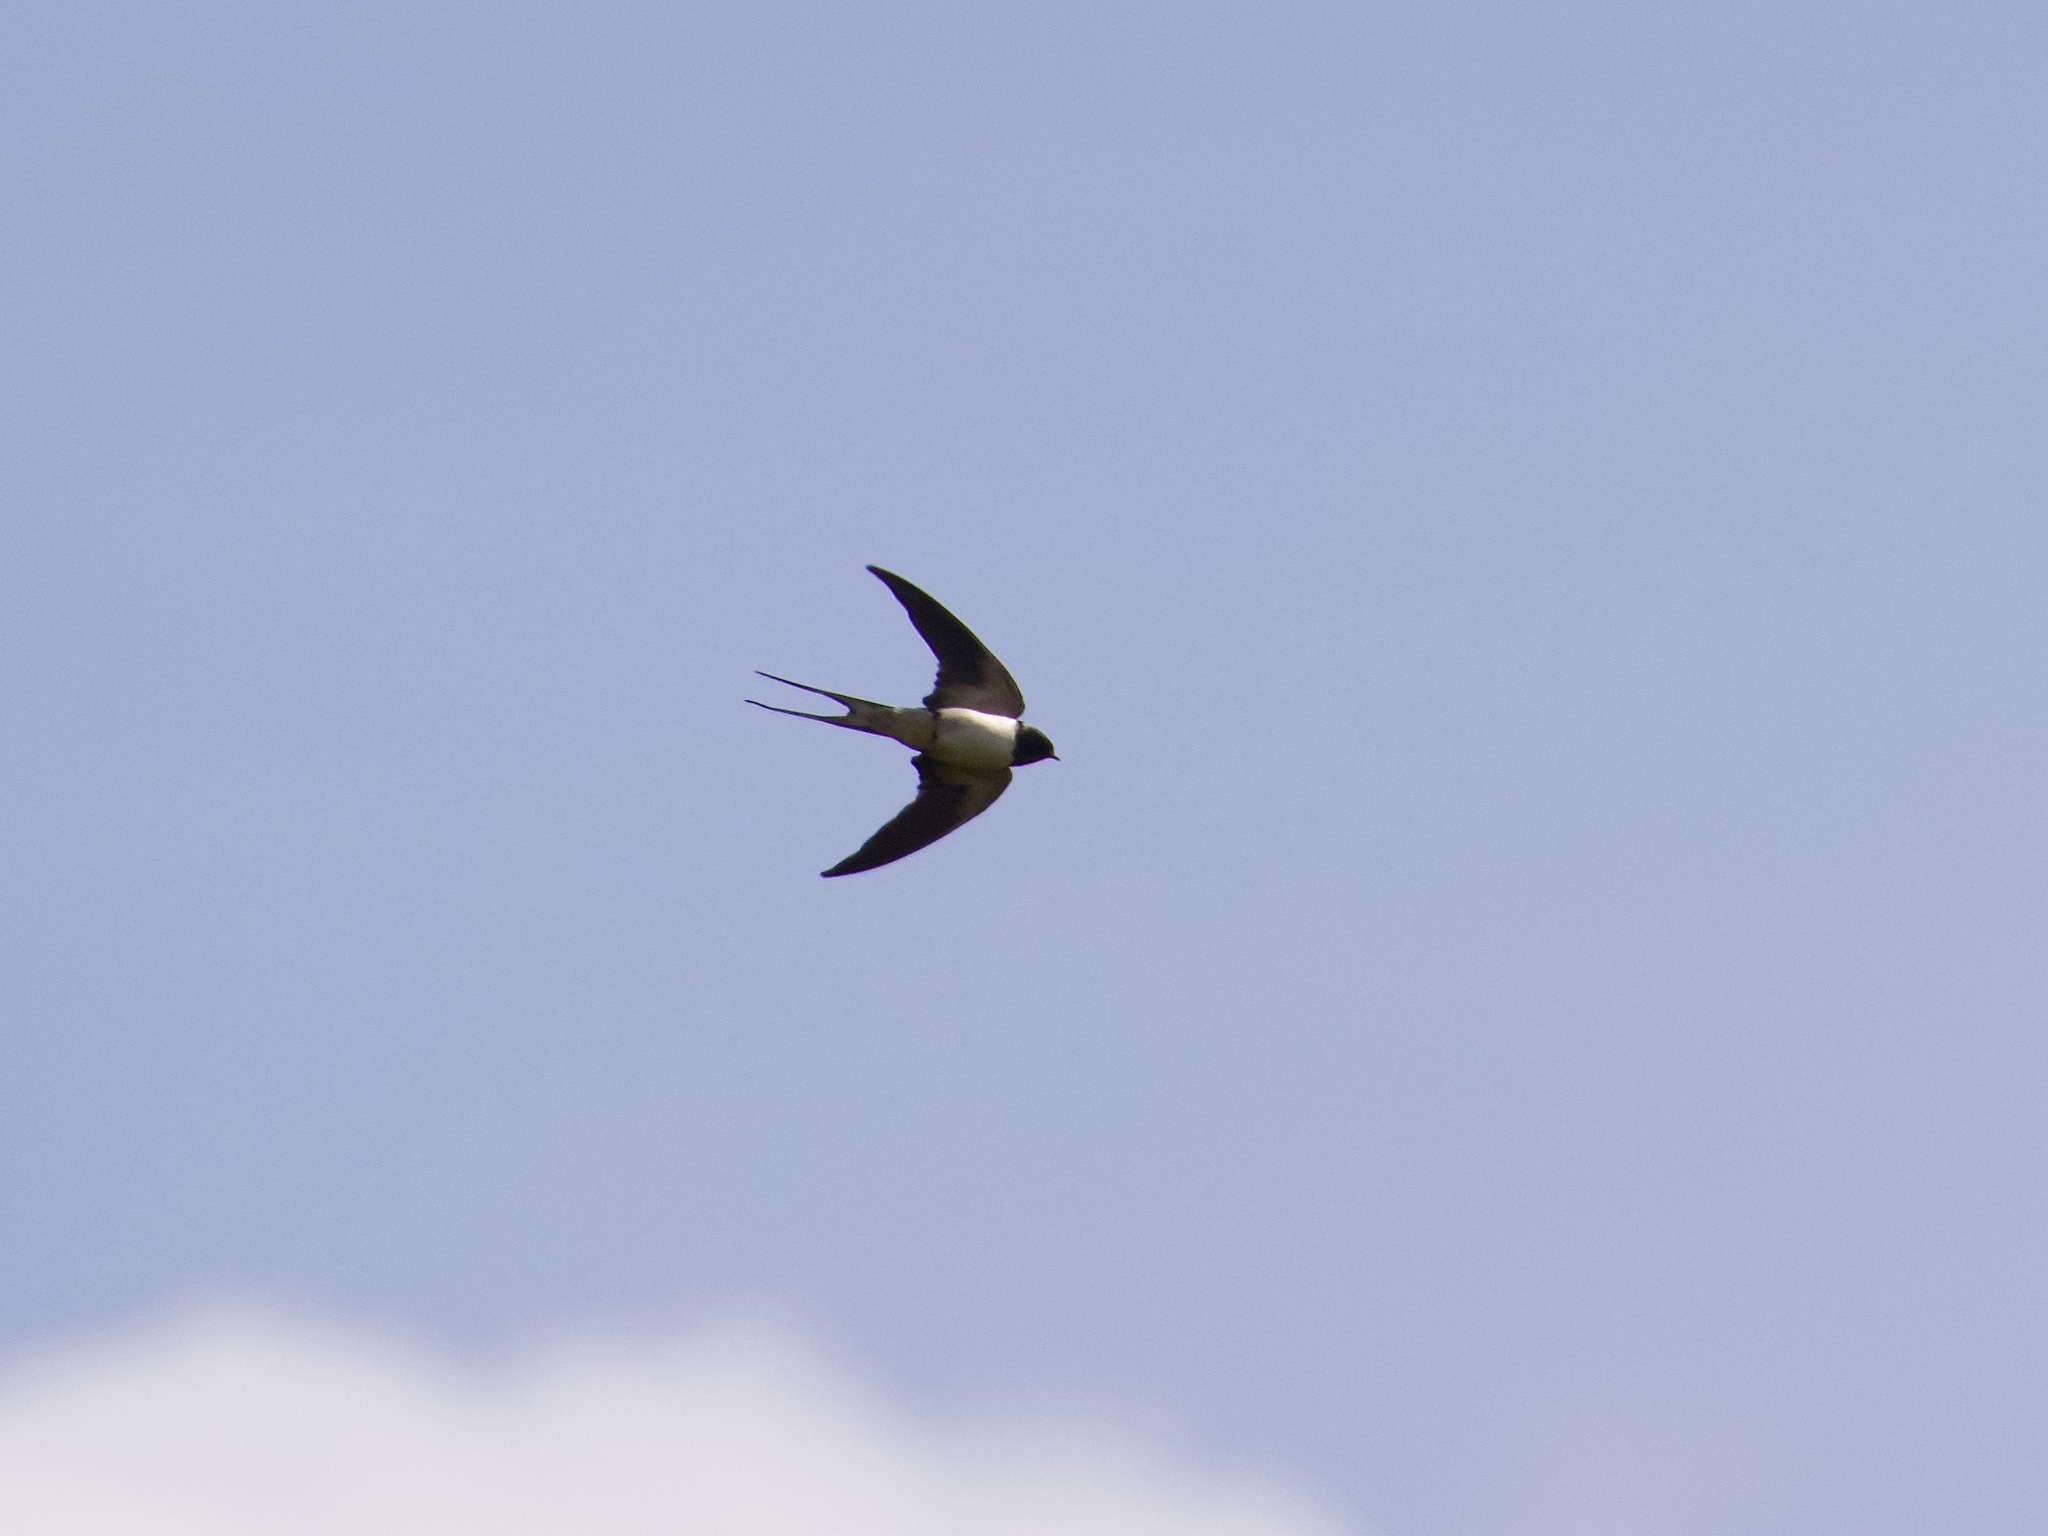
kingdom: Animalia
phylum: Chordata
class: Aves
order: Passeriformes
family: Hirundinidae
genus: Hirundo
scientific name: Hirundo rustica
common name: Barn swallow
